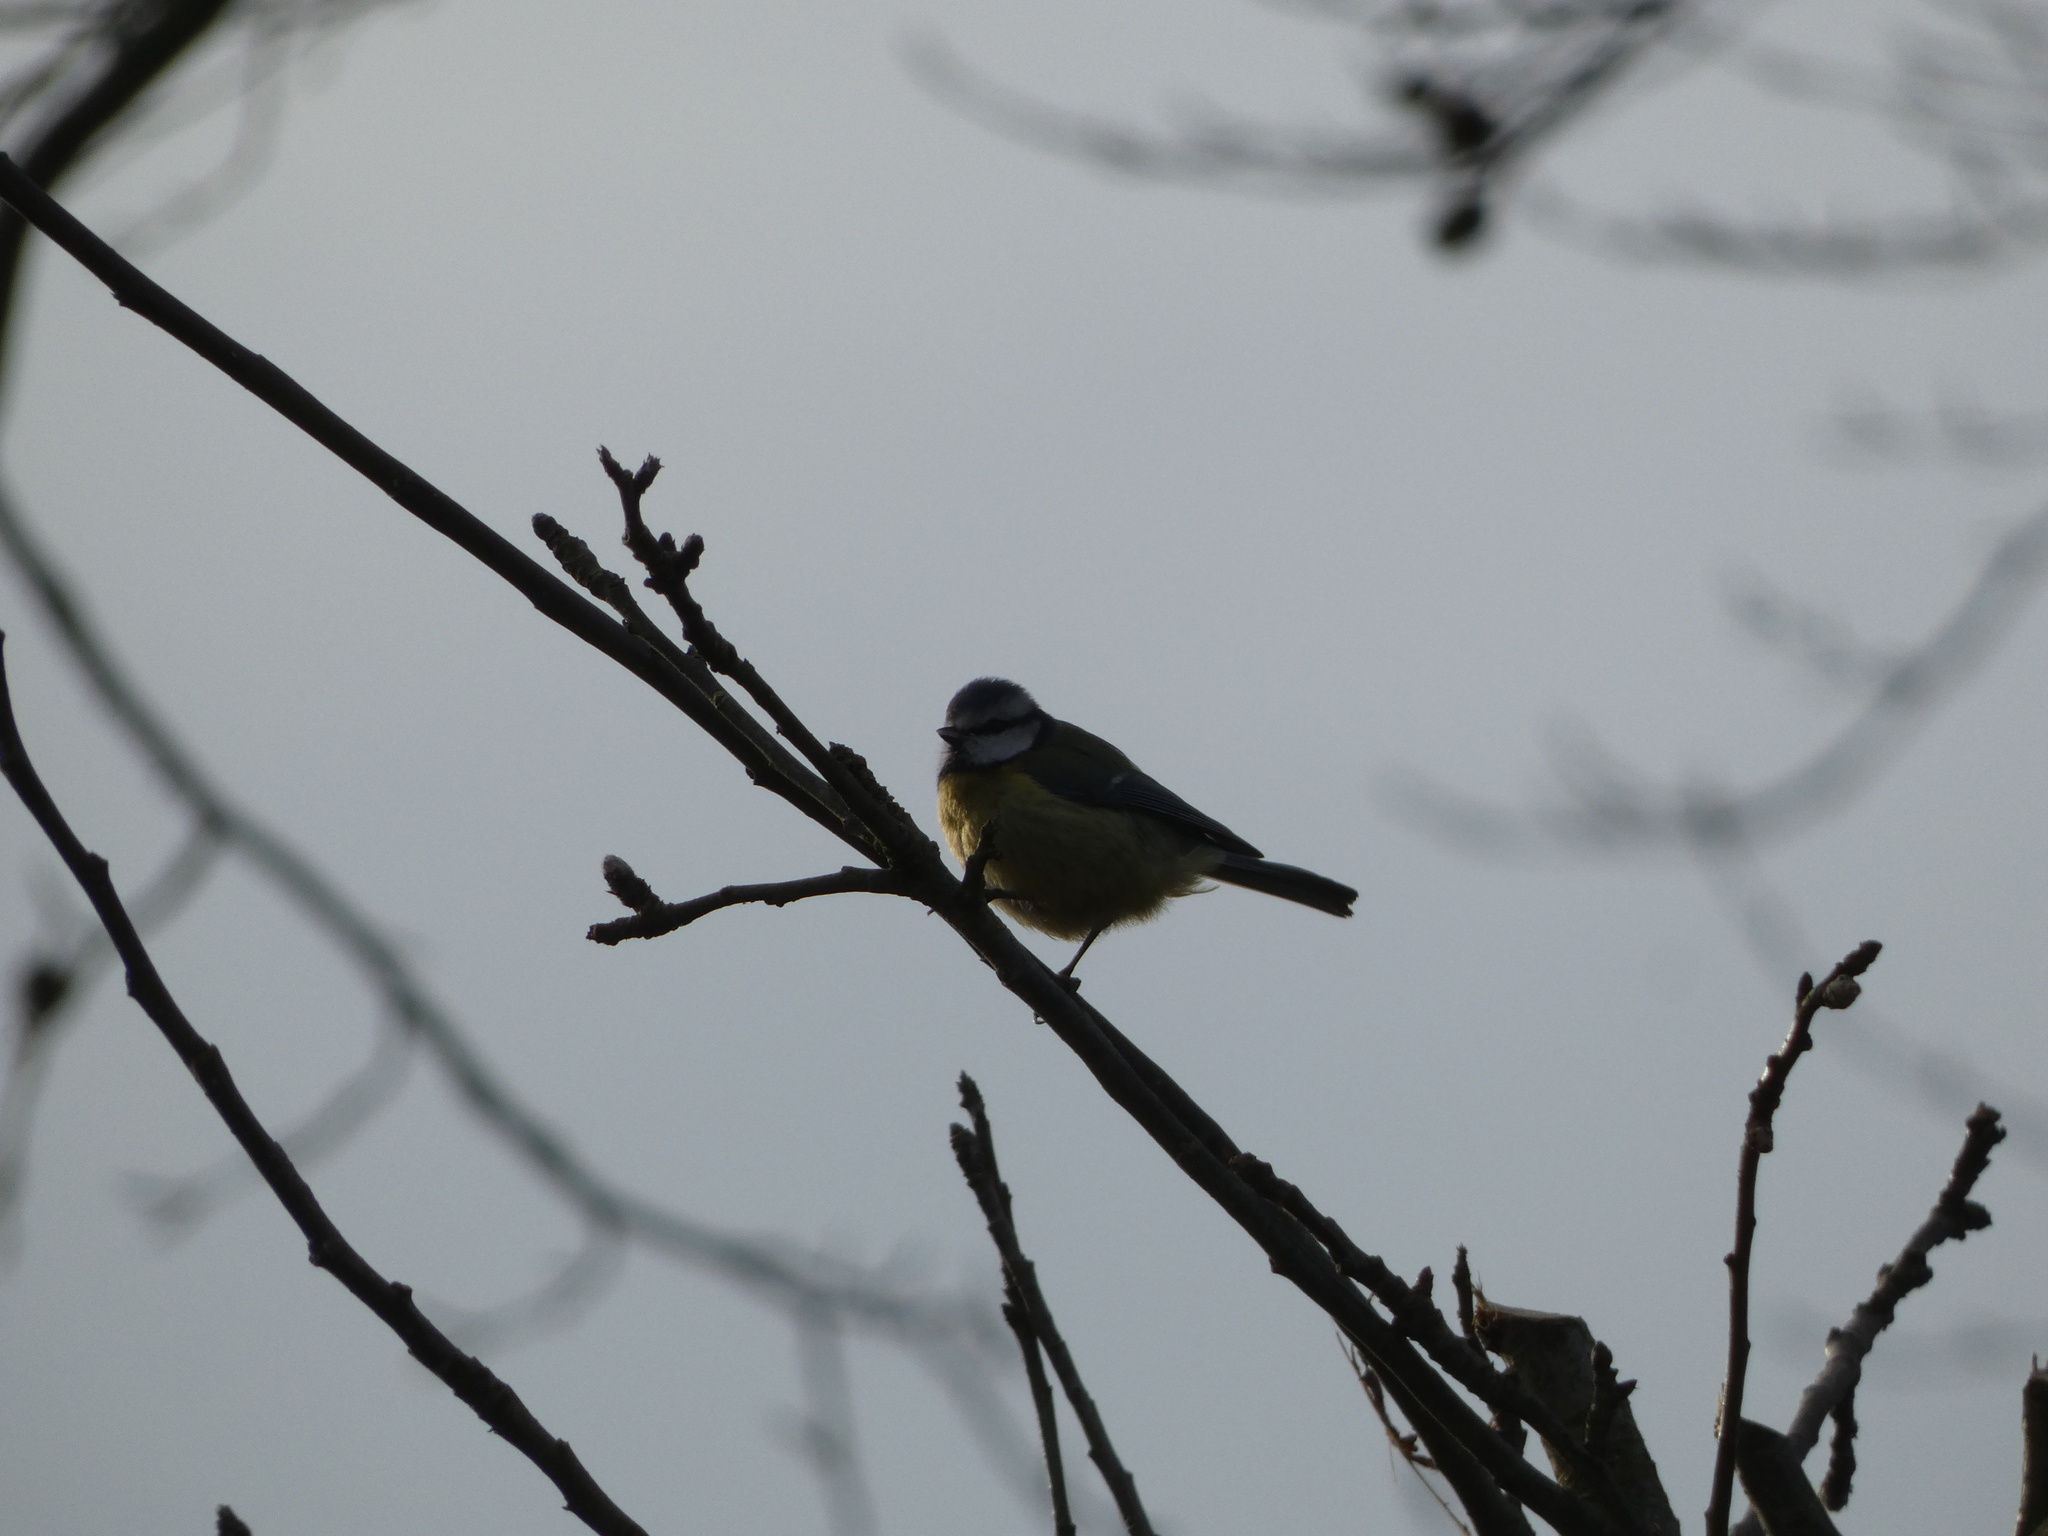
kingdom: Animalia
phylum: Chordata
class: Aves
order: Passeriformes
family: Paridae
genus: Cyanistes
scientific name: Cyanistes caeruleus
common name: Eurasian blue tit
